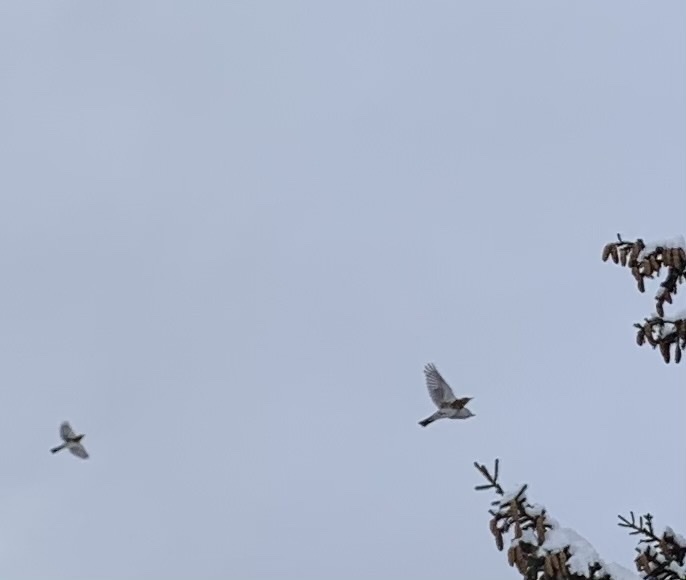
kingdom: Animalia
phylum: Chordata
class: Aves
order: Passeriformes
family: Turdidae
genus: Turdus
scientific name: Turdus pilaris
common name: Fieldfare
